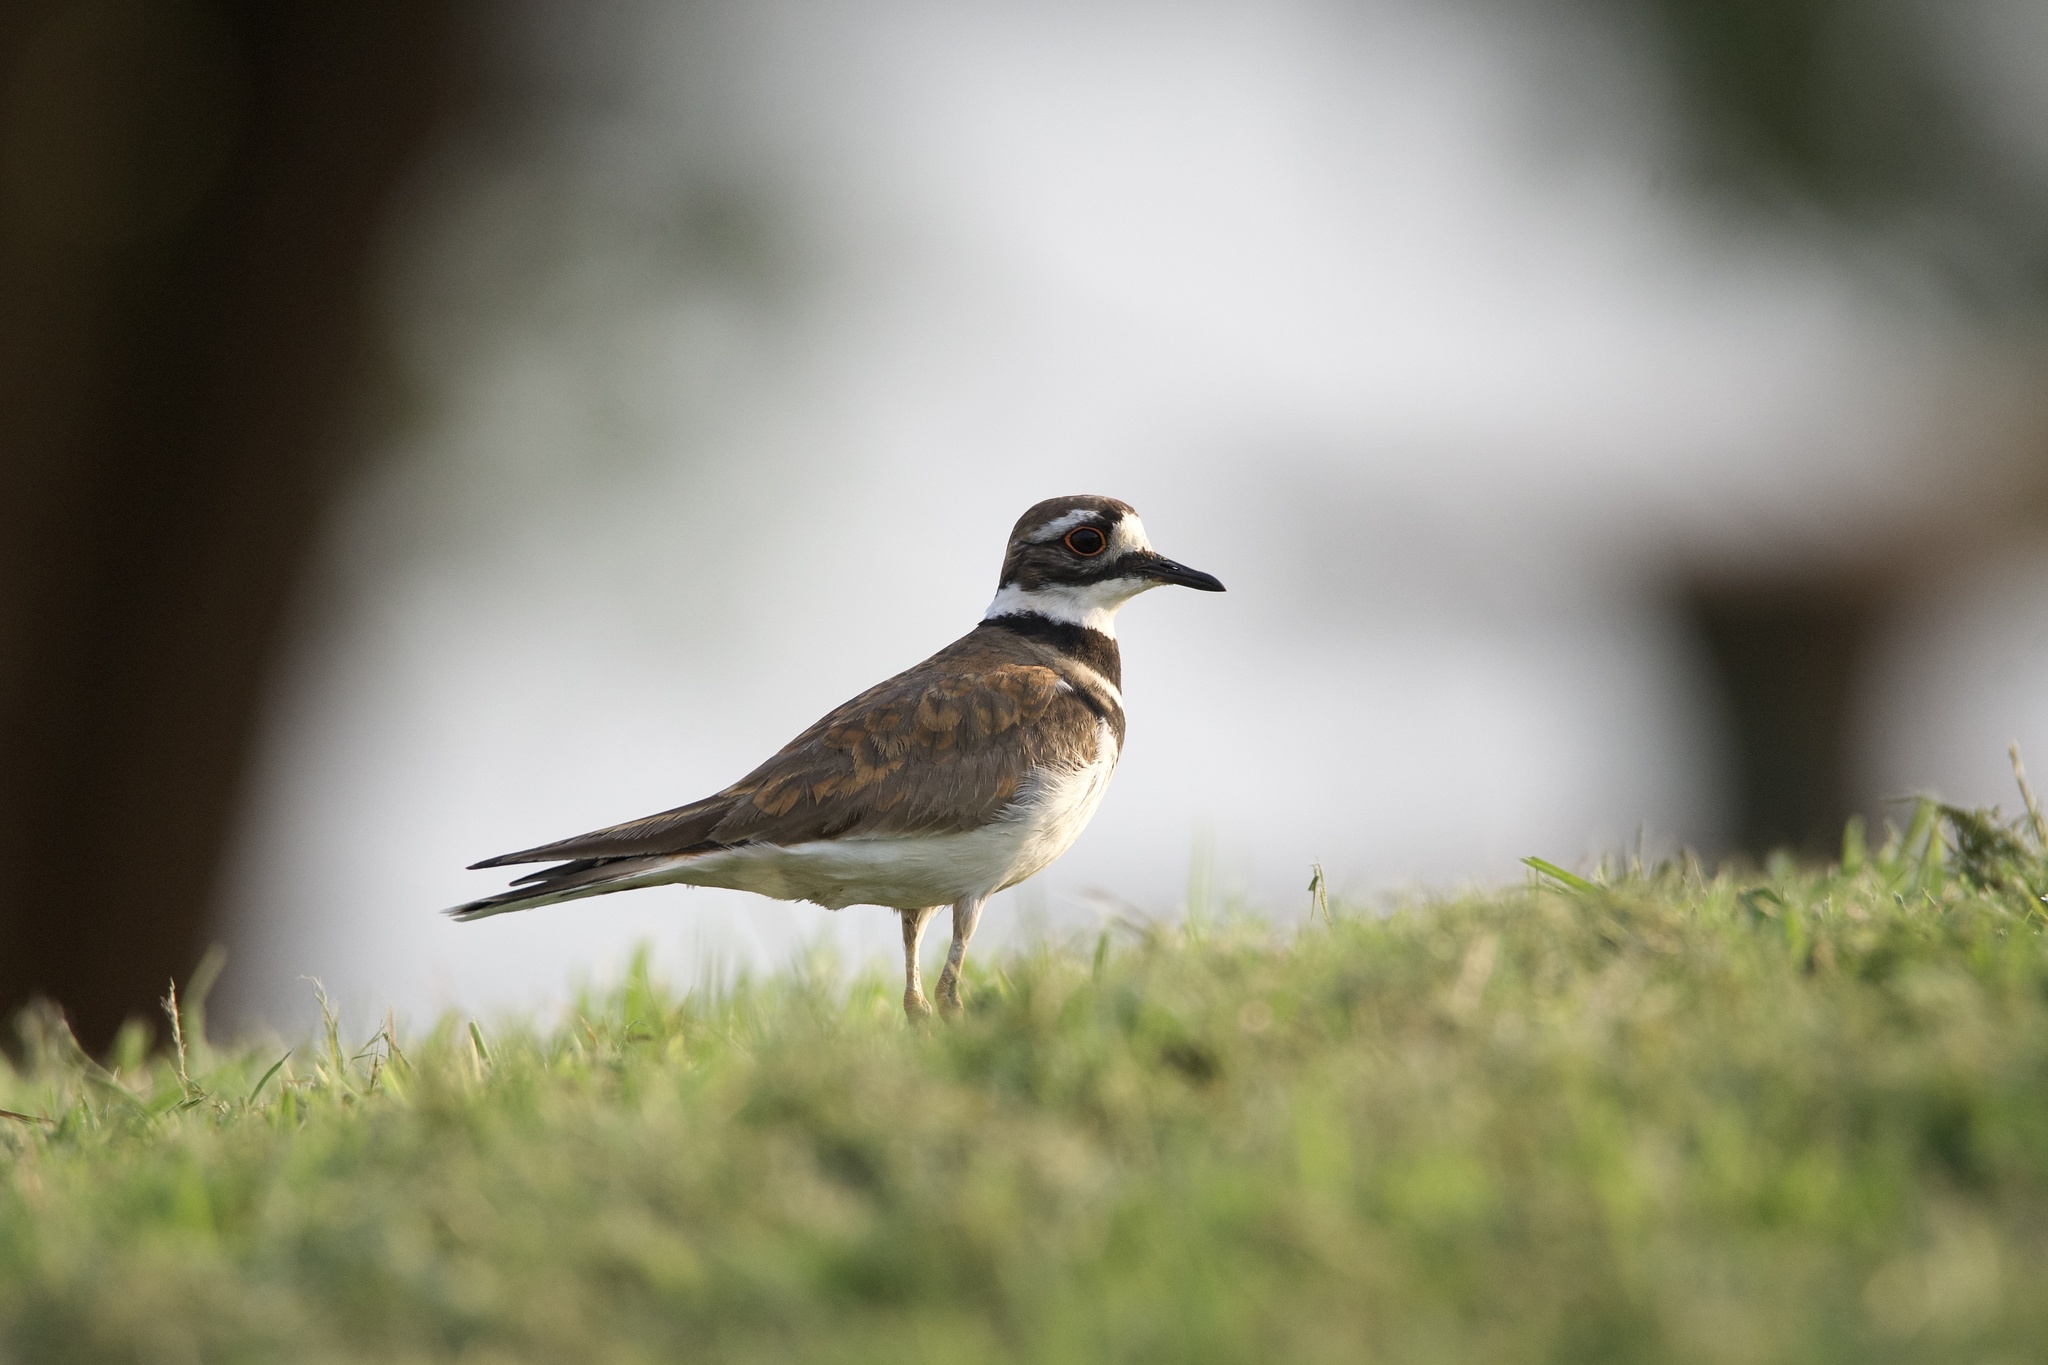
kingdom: Animalia
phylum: Chordata
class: Aves
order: Charadriiformes
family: Charadriidae
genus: Charadrius
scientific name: Charadrius vociferus
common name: Killdeer
